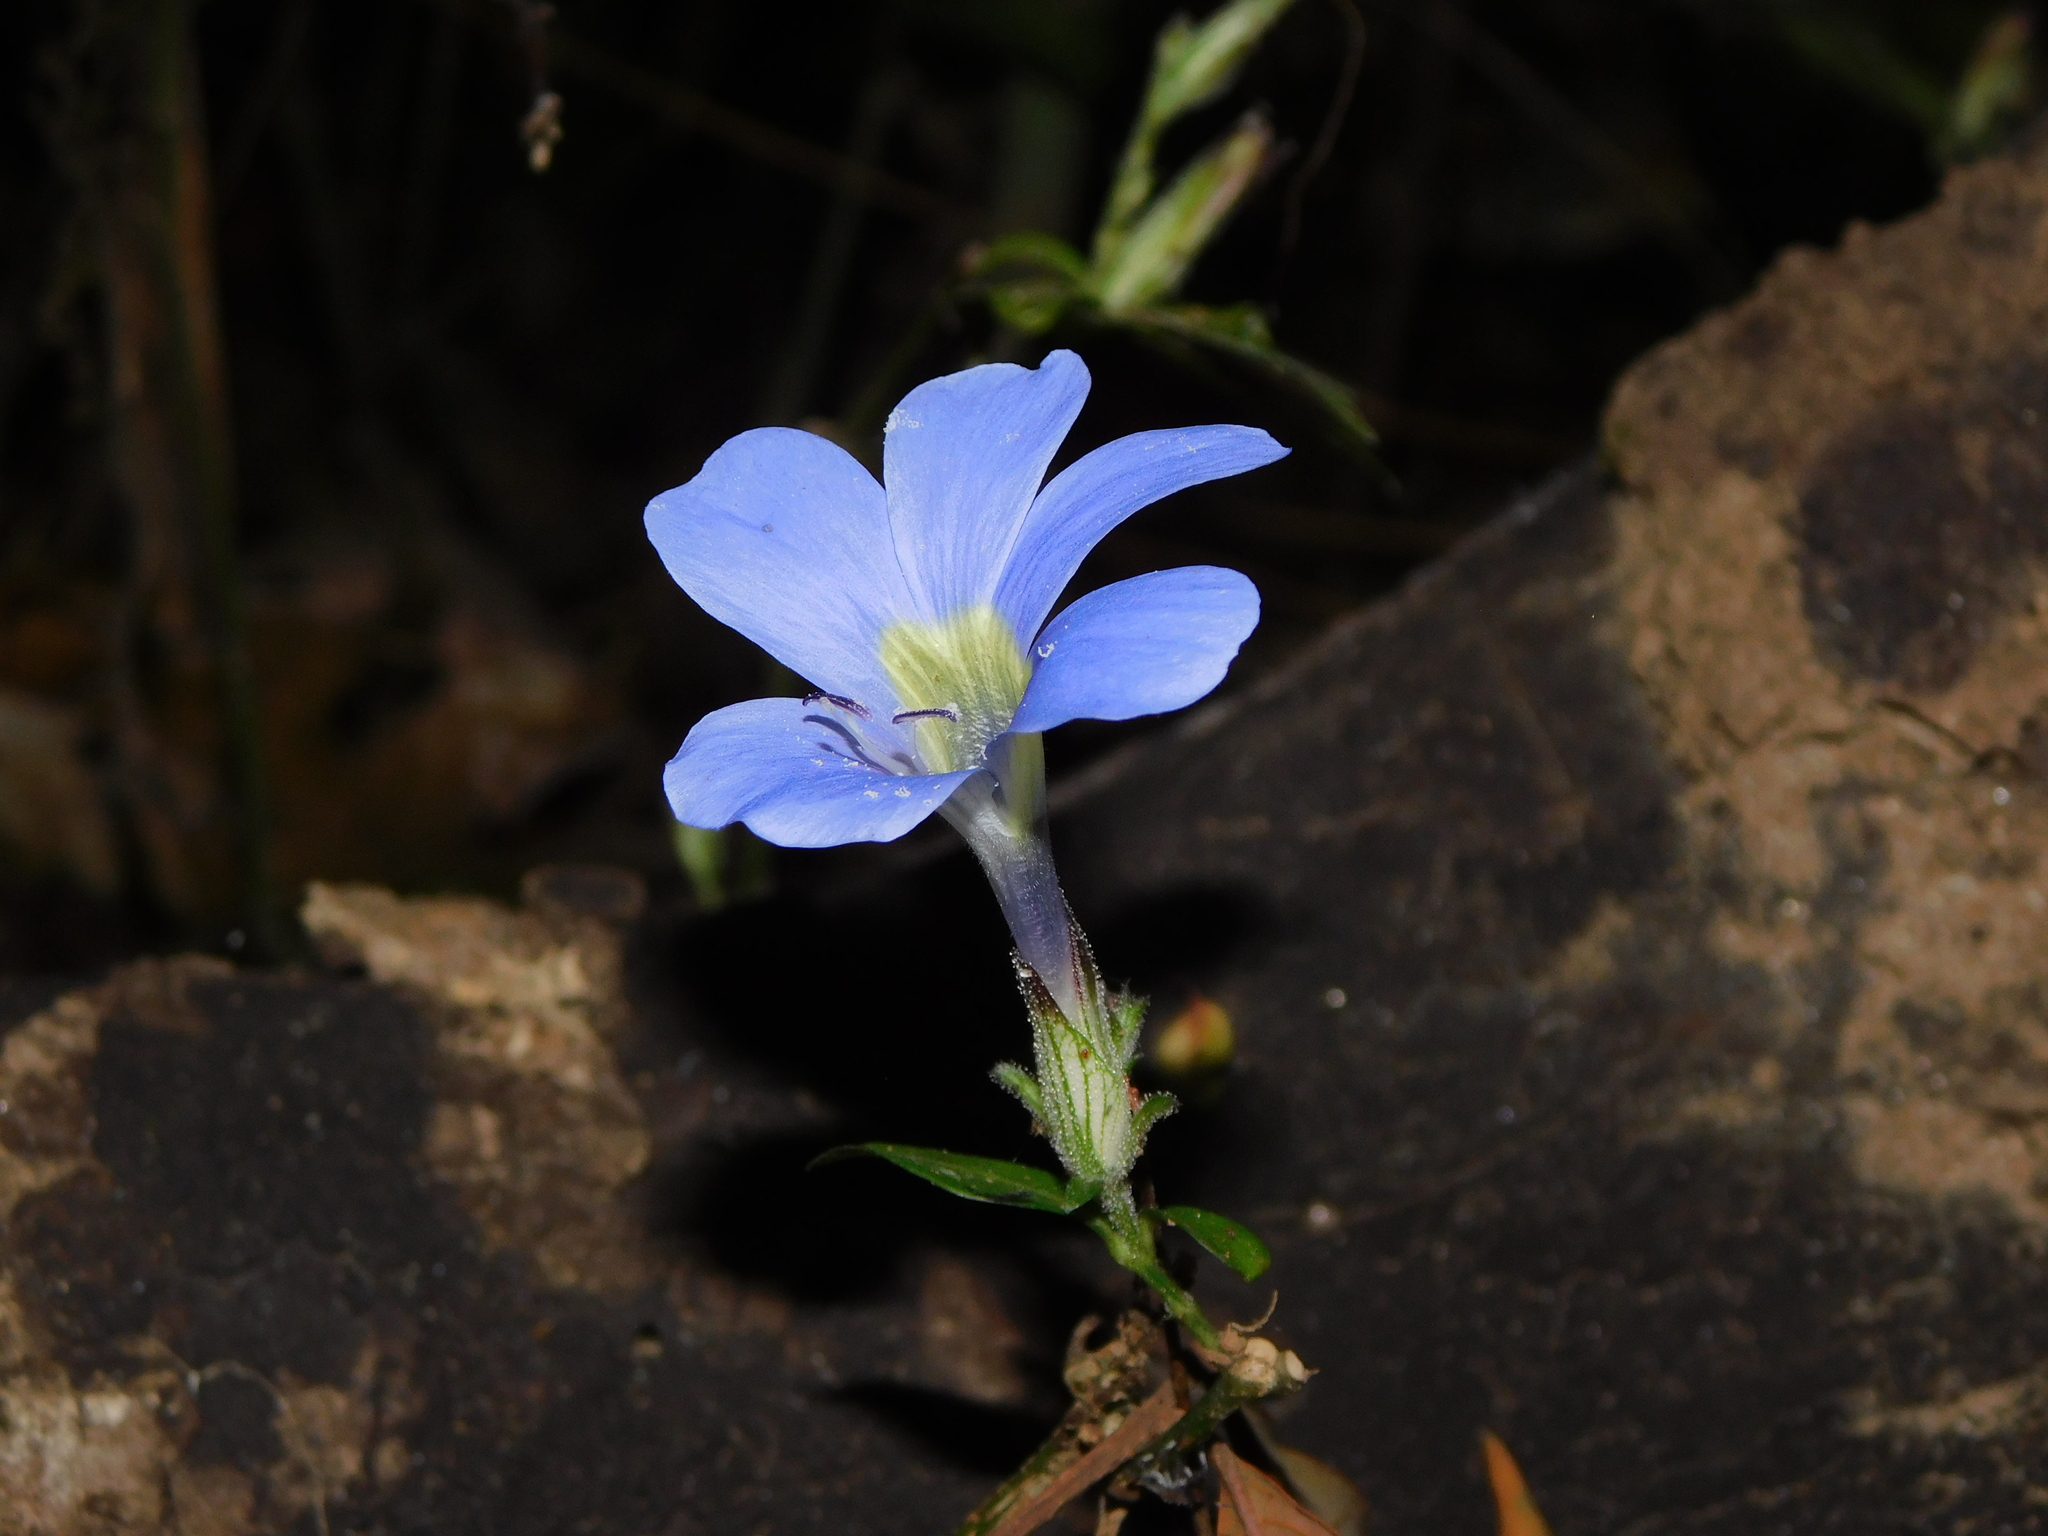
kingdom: Plantae
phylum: Tracheophyta
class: Magnoliopsida
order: Lamiales
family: Acanthaceae
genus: Barleria
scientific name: Barleria courtallica
